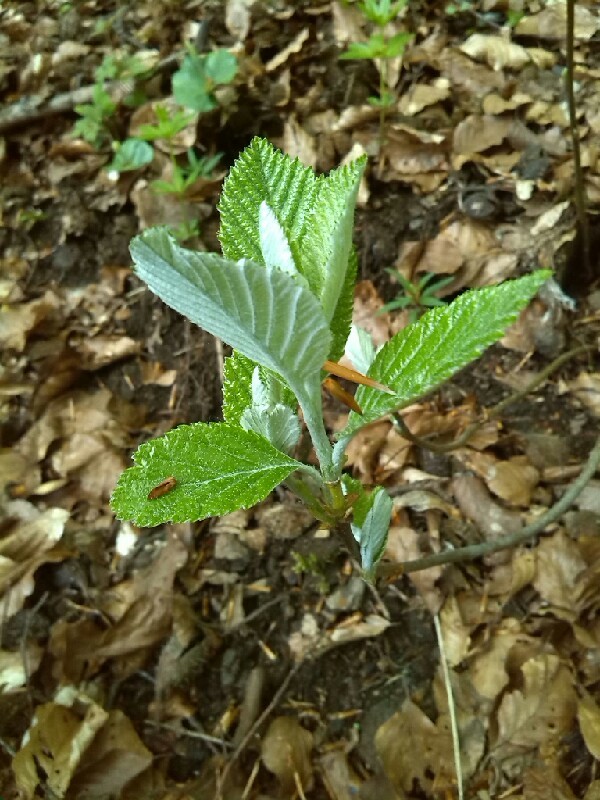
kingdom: Plantae
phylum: Tracheophyta
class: Magnoliopsida
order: Dipsacales
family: Viburnaceae
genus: Viburnum
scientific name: Viburnum lantana
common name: Wayfaring tree
